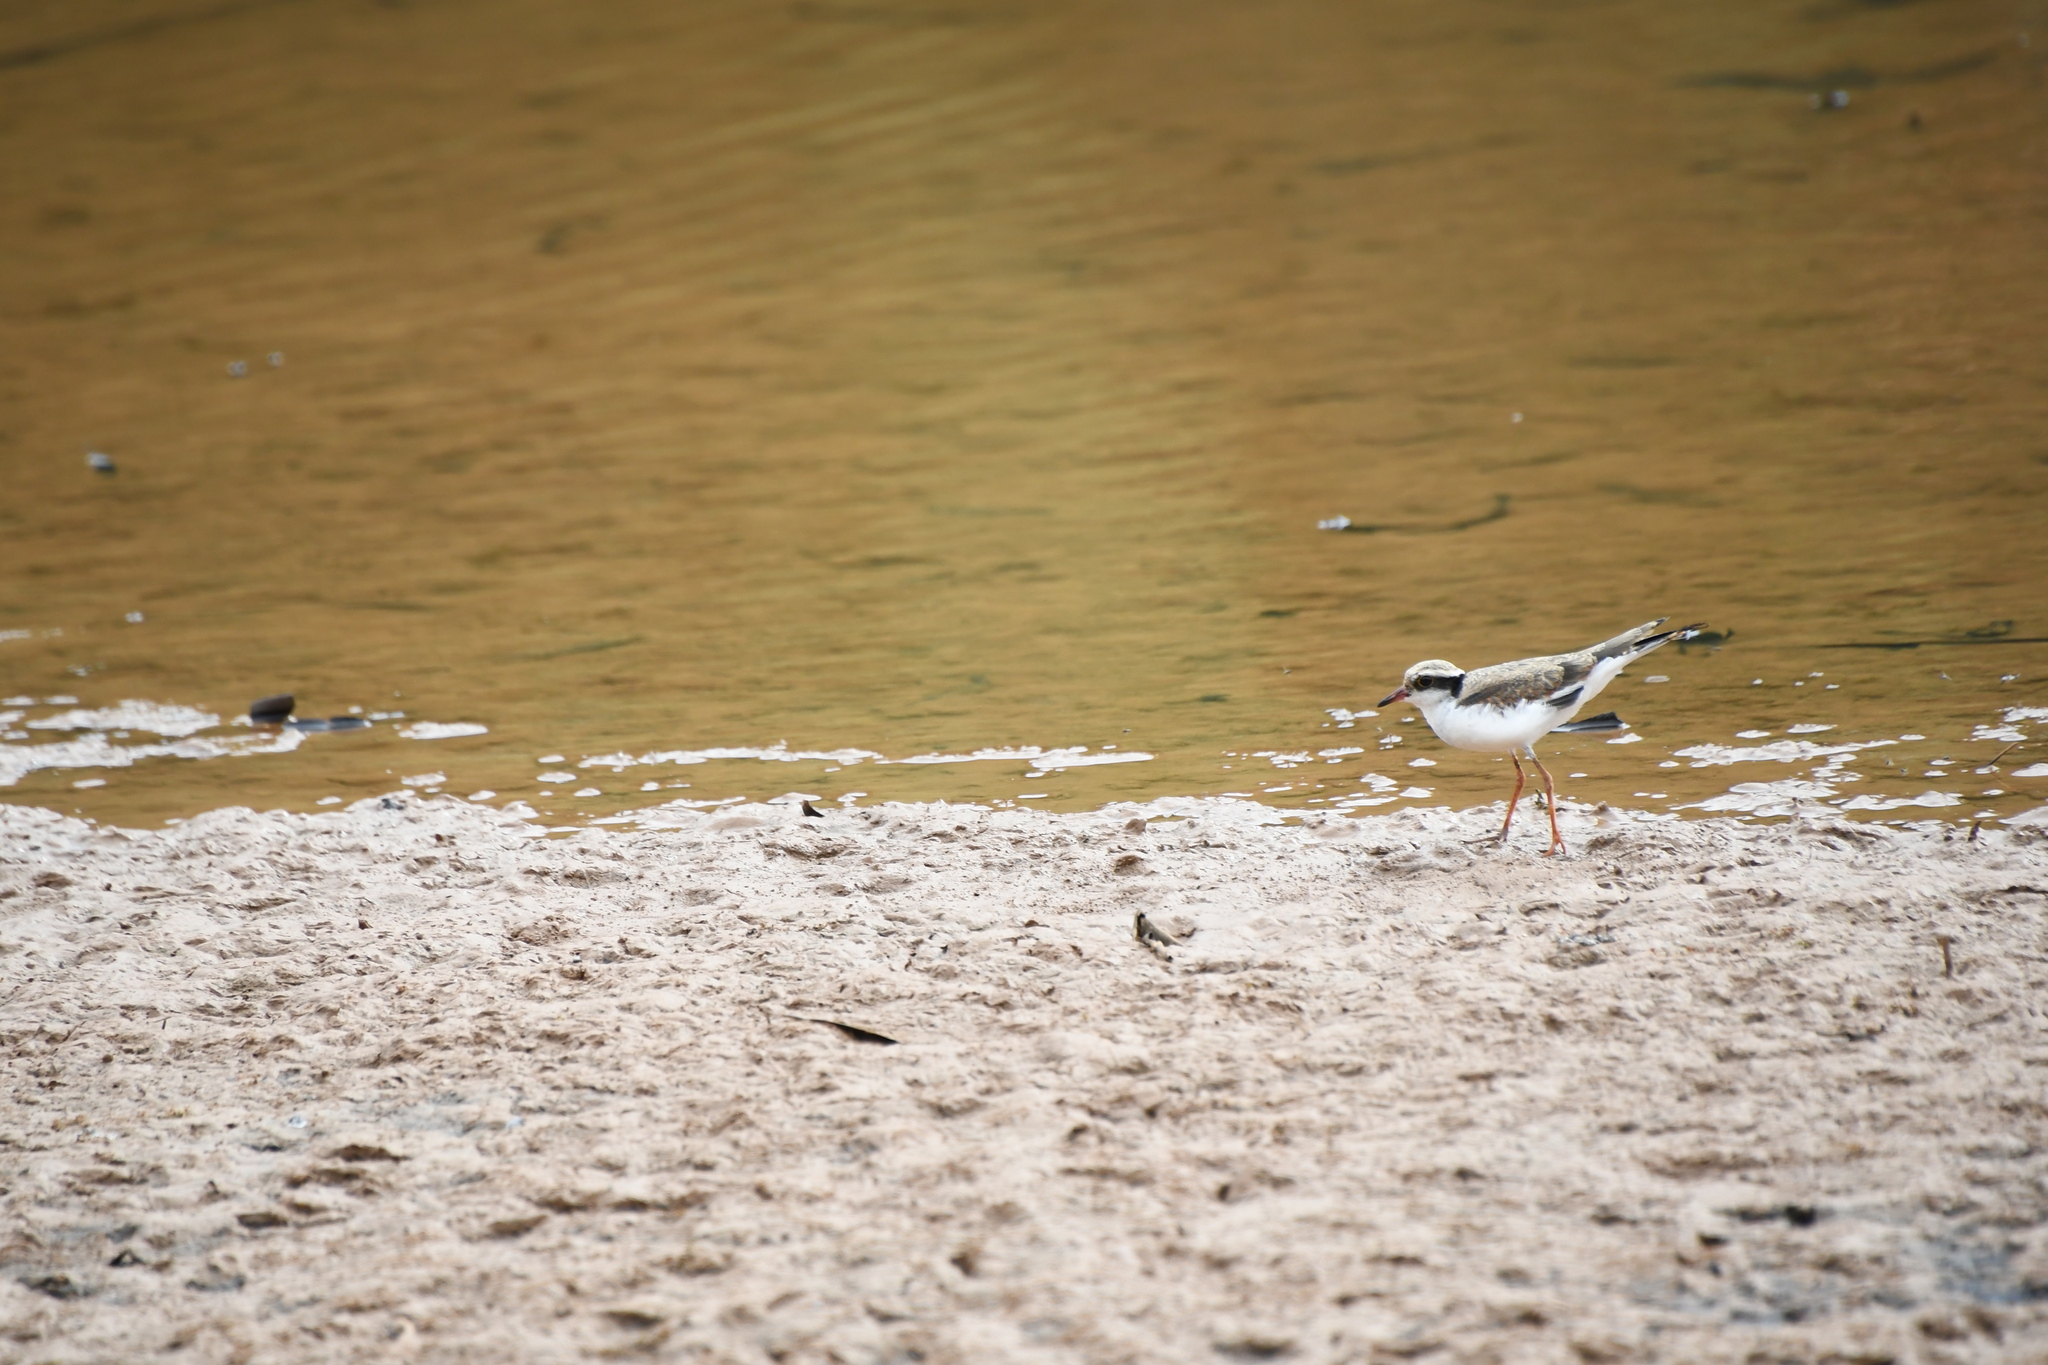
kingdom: Animalia
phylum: Chordata
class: Aves
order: Charadriiformes
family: Charadriidae
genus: Elseyornis
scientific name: Elseyornis melanops
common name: Black-fronted dotterel
